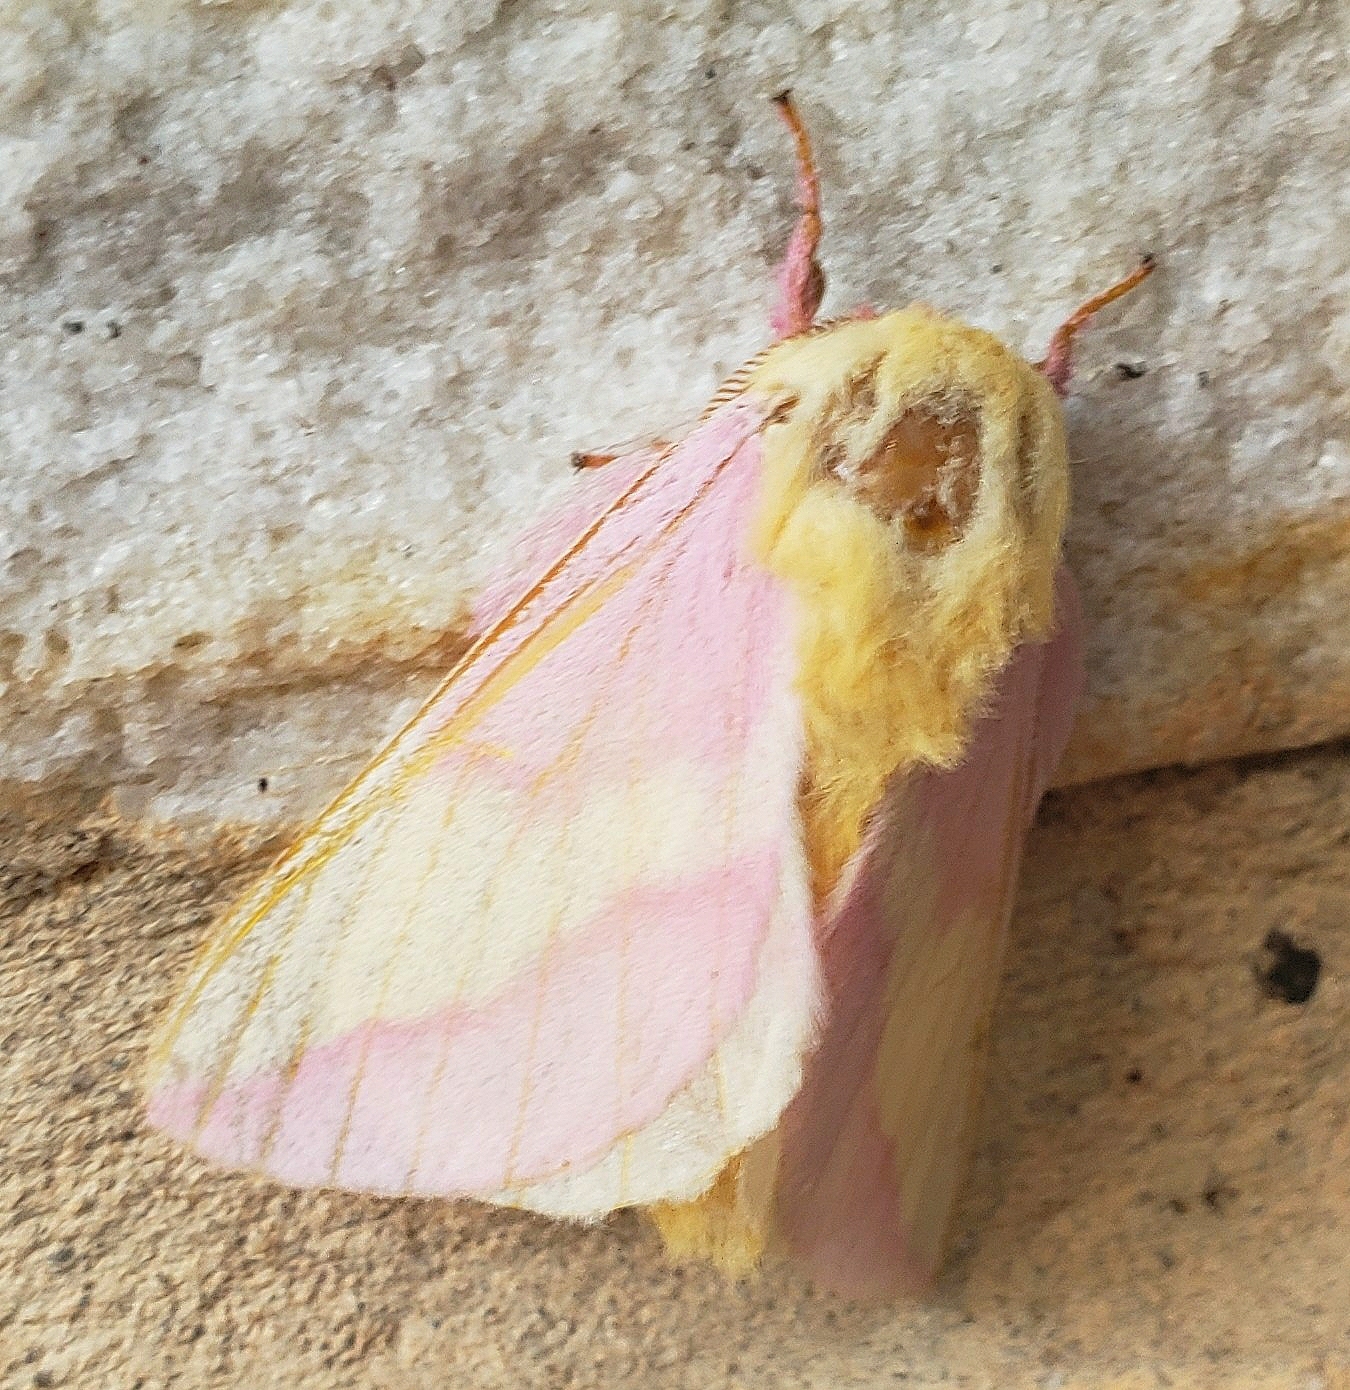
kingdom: Animalia
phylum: Arthropoda
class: Insecta
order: Lepidoptera
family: Saturniidae
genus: Dryocampa
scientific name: Dryocampa rubicunda
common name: Rosy maple moth
